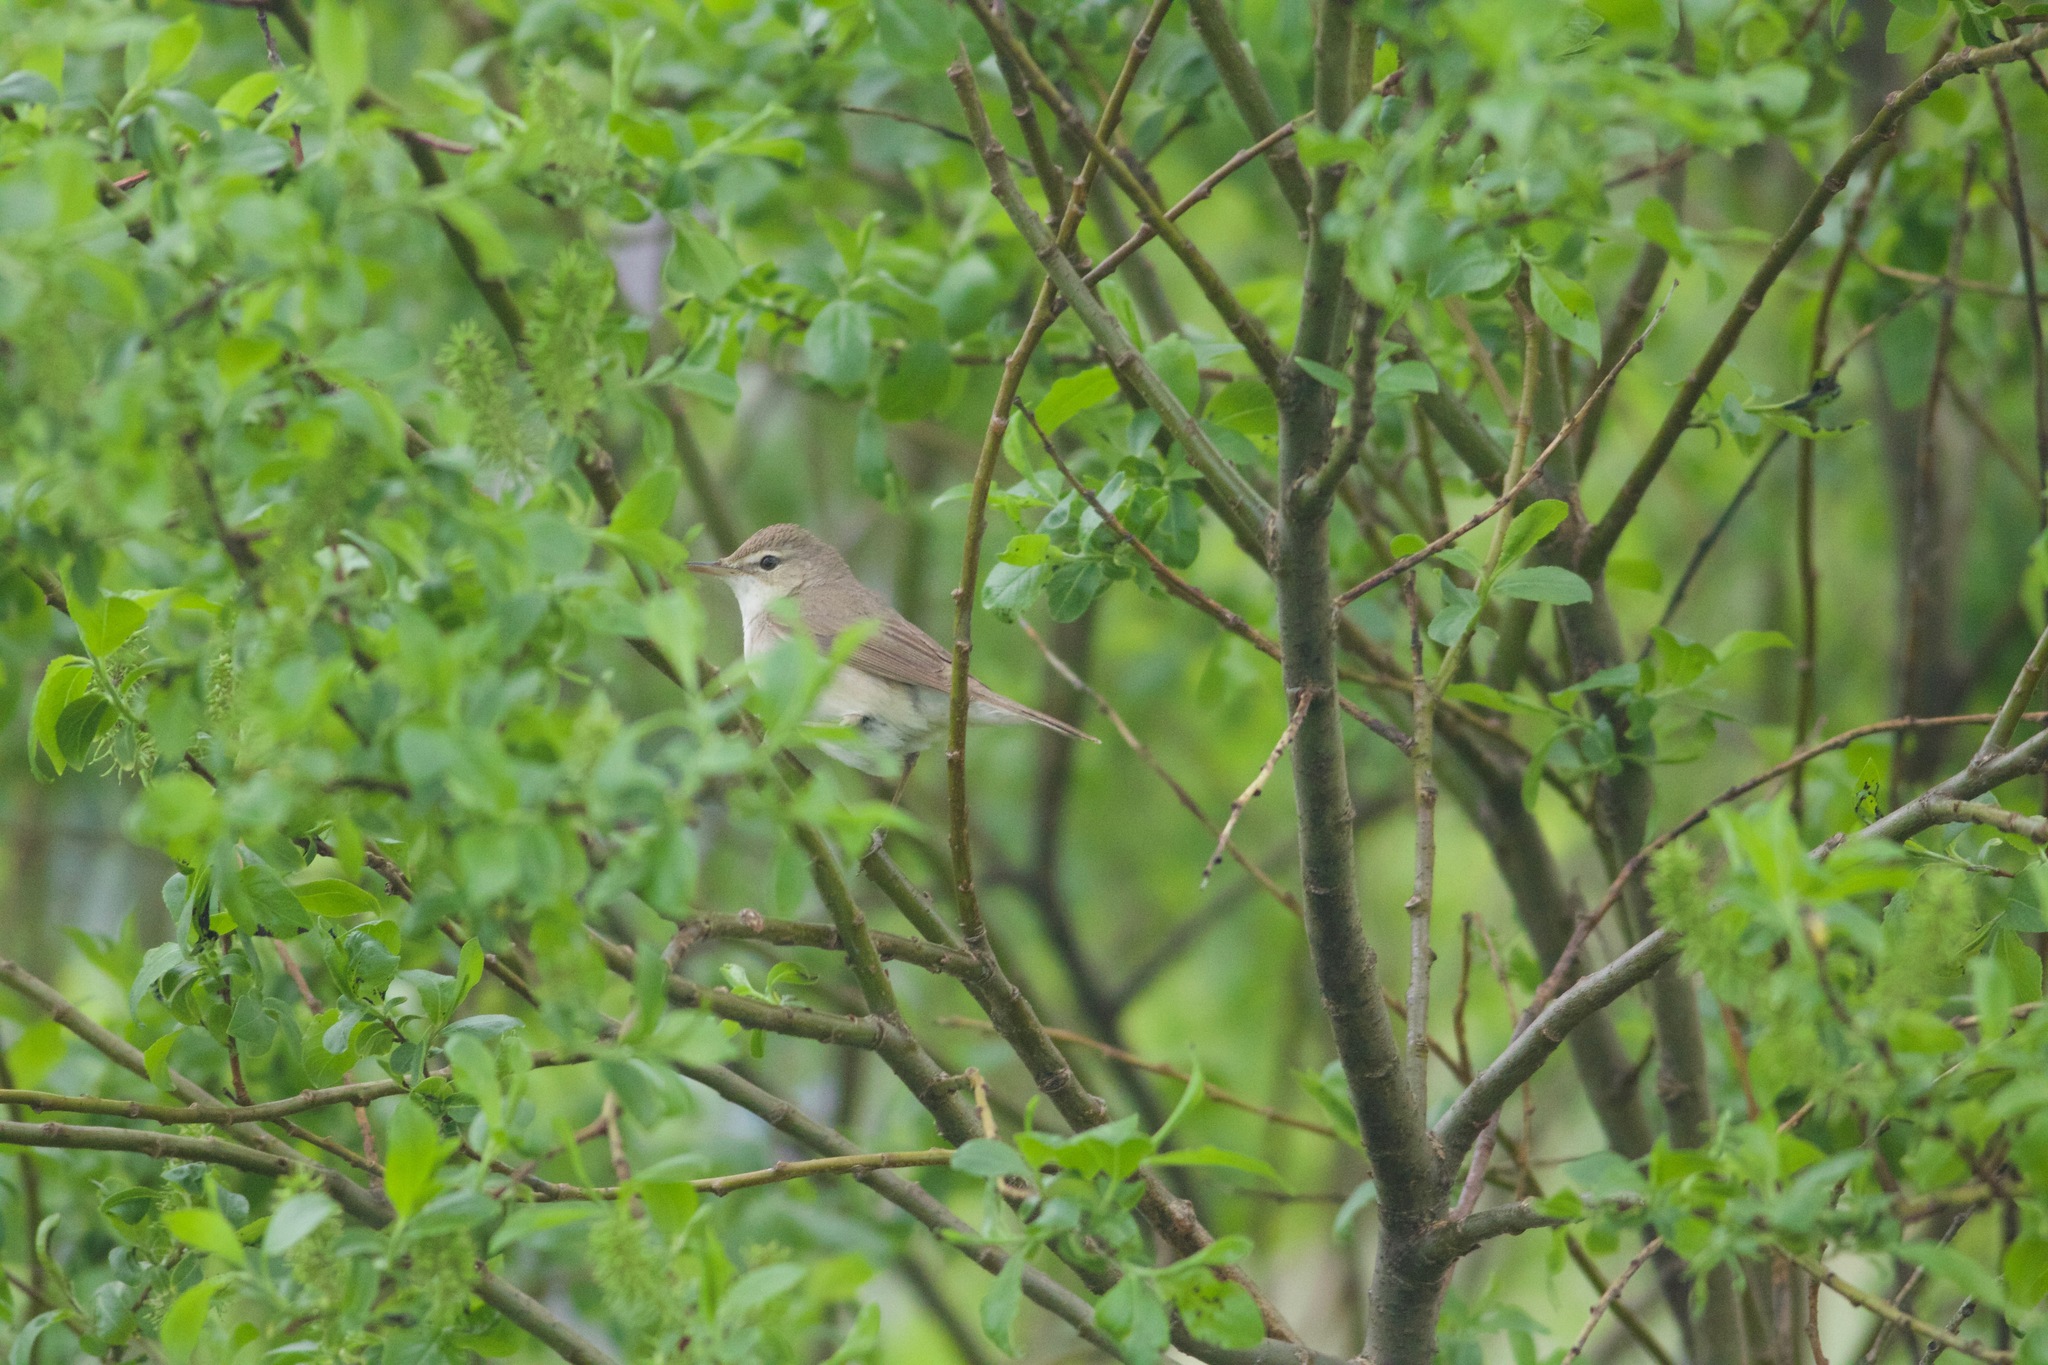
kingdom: Animalia
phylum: Chordata
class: Aves
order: Passeriformes
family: Acrocephalidae
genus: Iduna
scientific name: Iduna caligata
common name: Booted warbler
